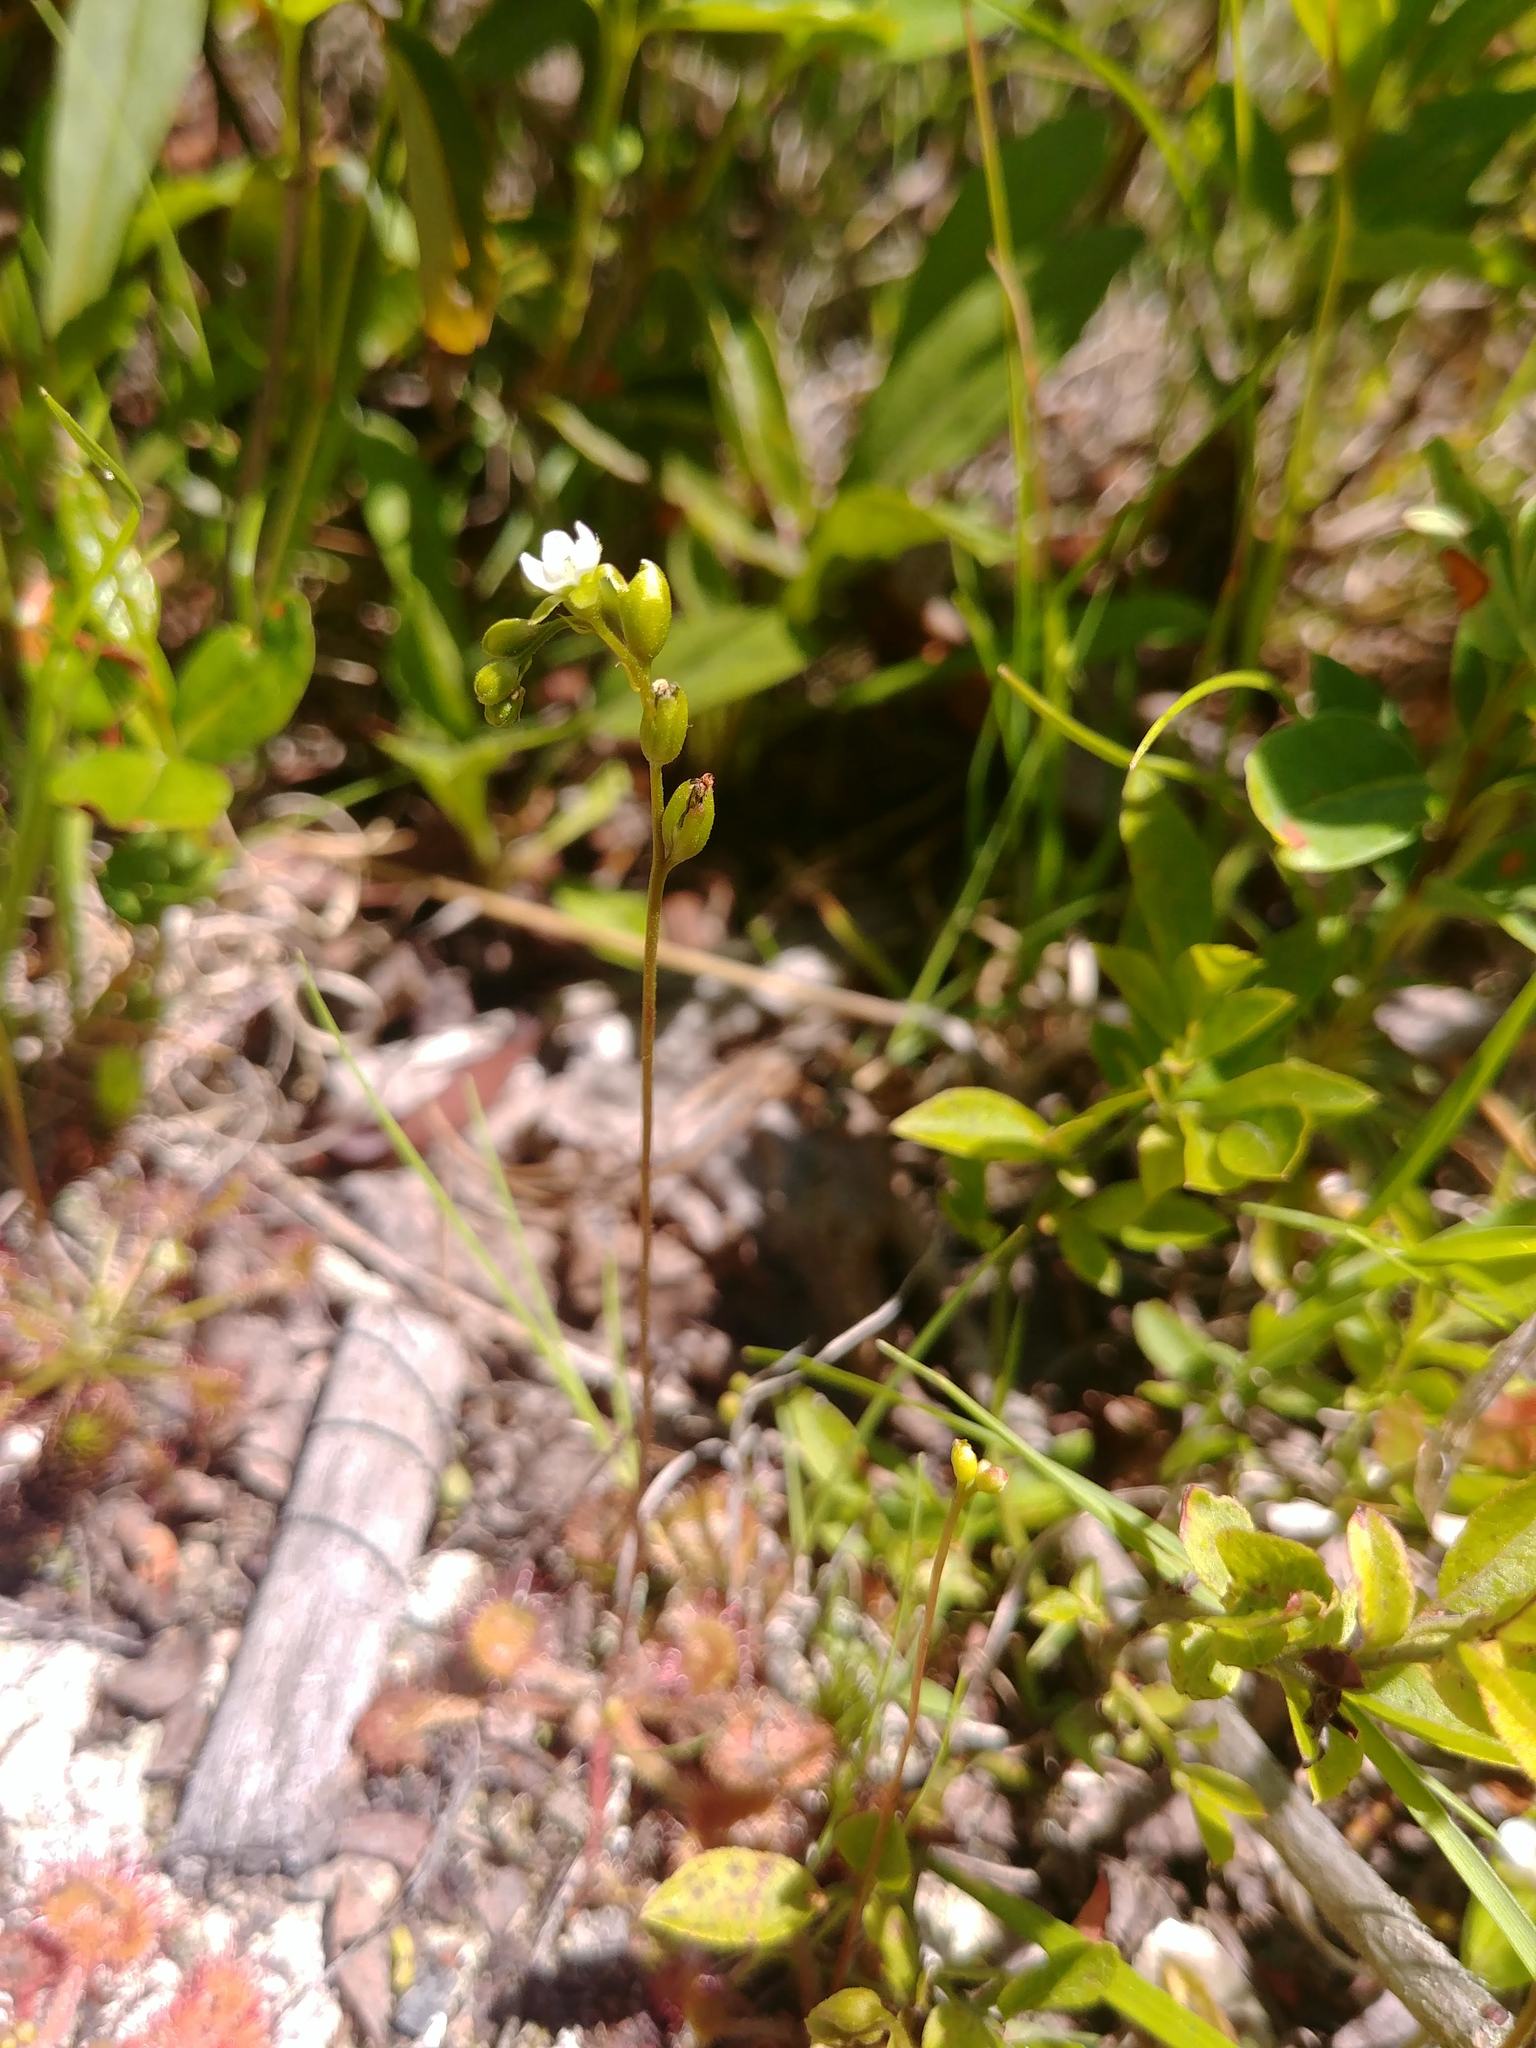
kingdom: Plantae
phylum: Tracheophyta
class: Magnoliopsida
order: Caryophyllales
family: Droseraceae
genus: Drosera
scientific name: Drosera rotundifolia
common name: Round-leaved sundew
